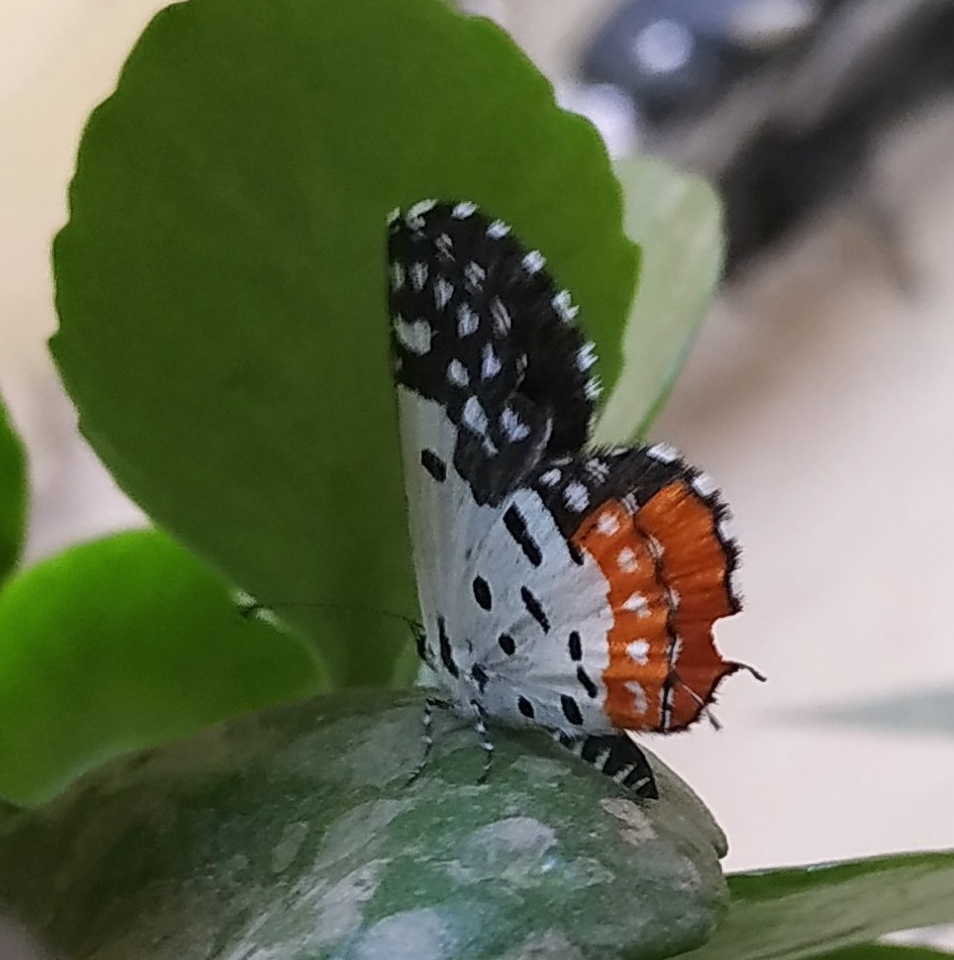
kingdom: Animalia
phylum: Arthropoda
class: Insecta
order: Lepidoptera
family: Lycaenidae
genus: Talicada
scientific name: Talicada nyseus
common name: Red pierrot
